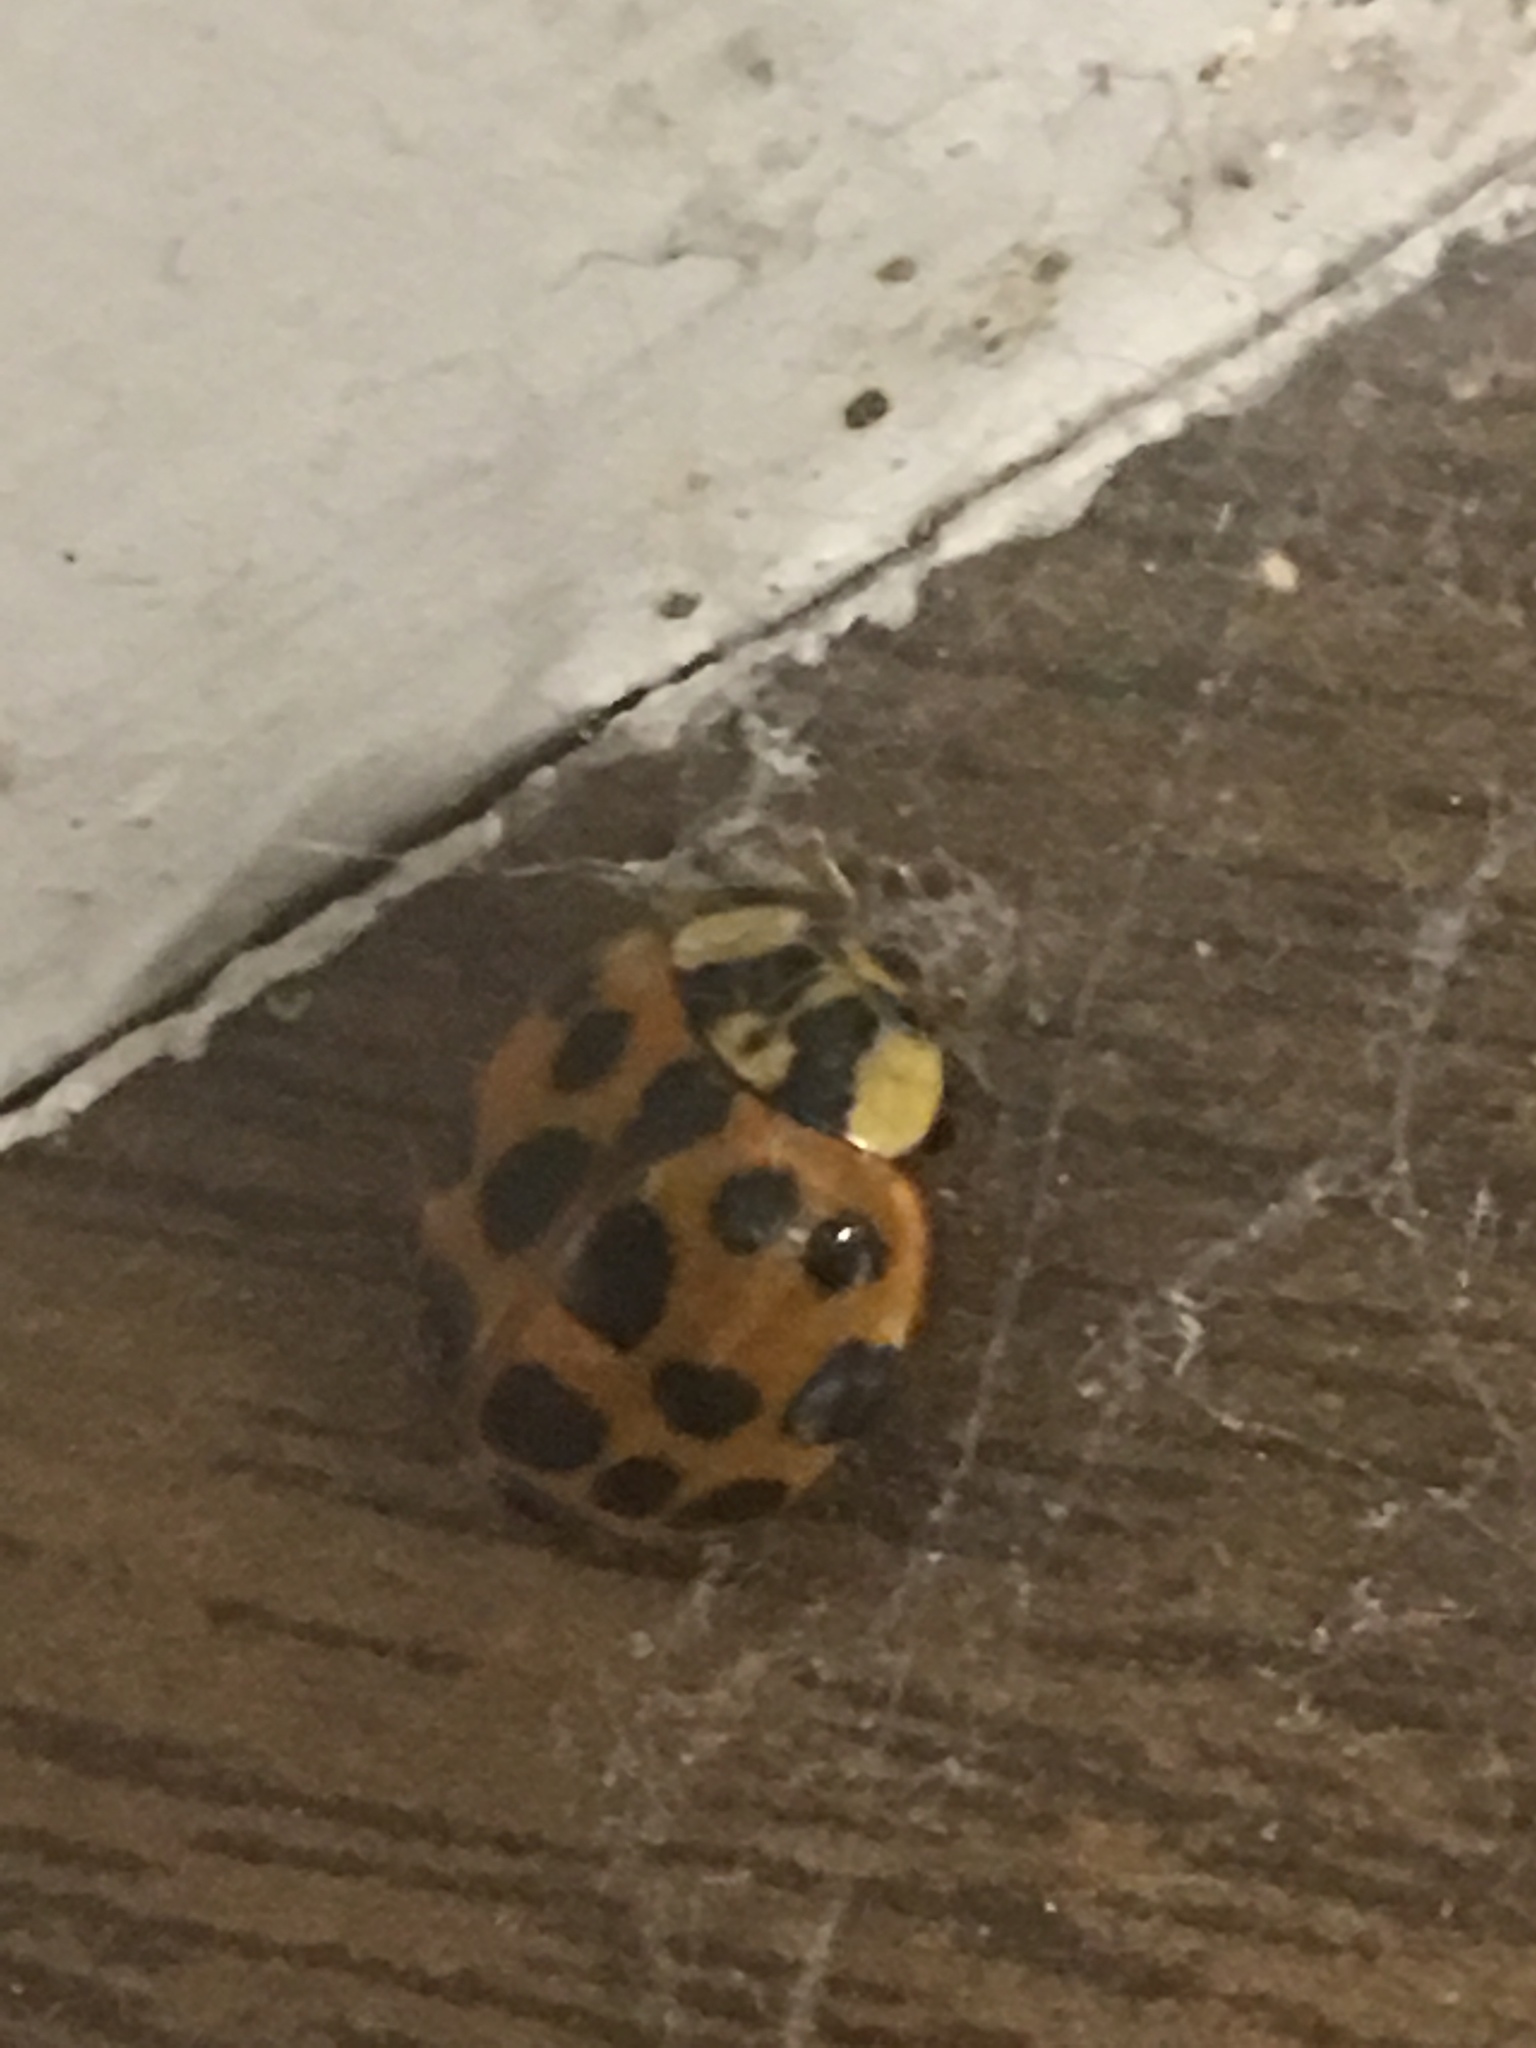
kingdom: Animalia
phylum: Arthropoda
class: Insecta
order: Coleoptera
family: Coccinellidae
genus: Harmonia
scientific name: Harmonia axyridis
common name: Harlequin ladybird
